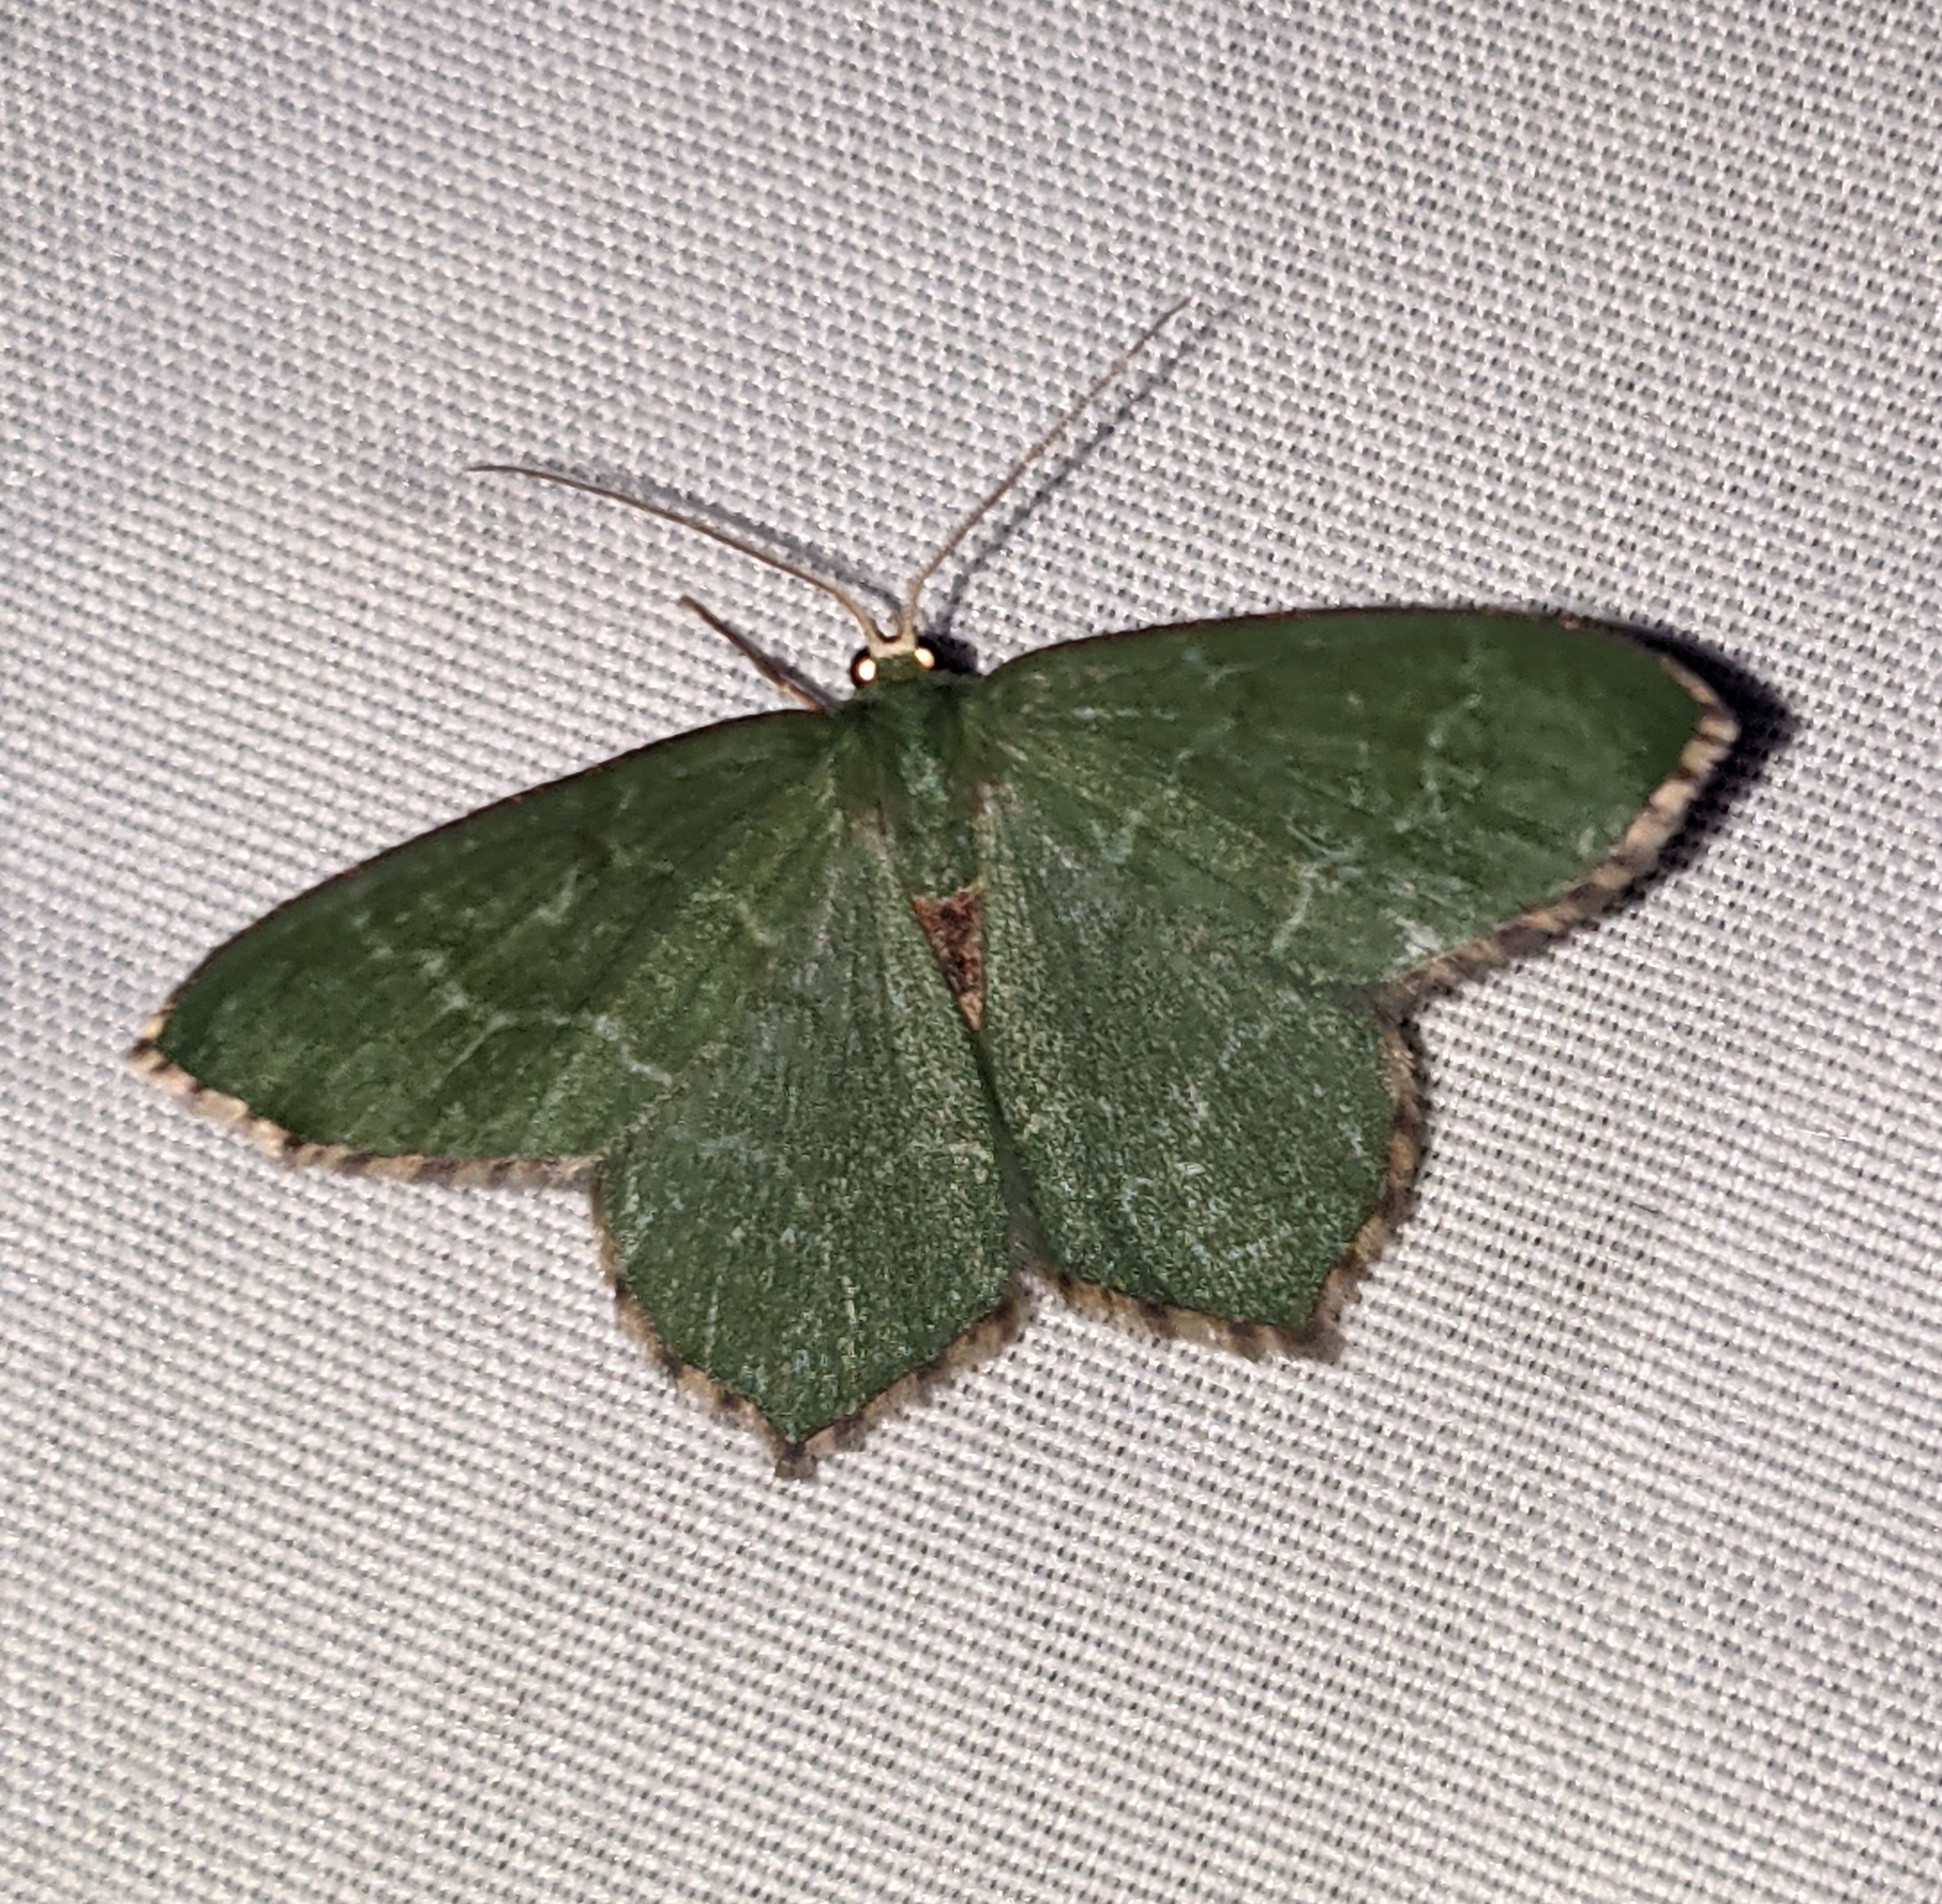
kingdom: Animalia
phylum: Arthropoda
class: Insecta
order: Lepidoptera
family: Geometridae
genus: Hemithea
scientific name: Hemithea aestivaria
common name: Common emerald
